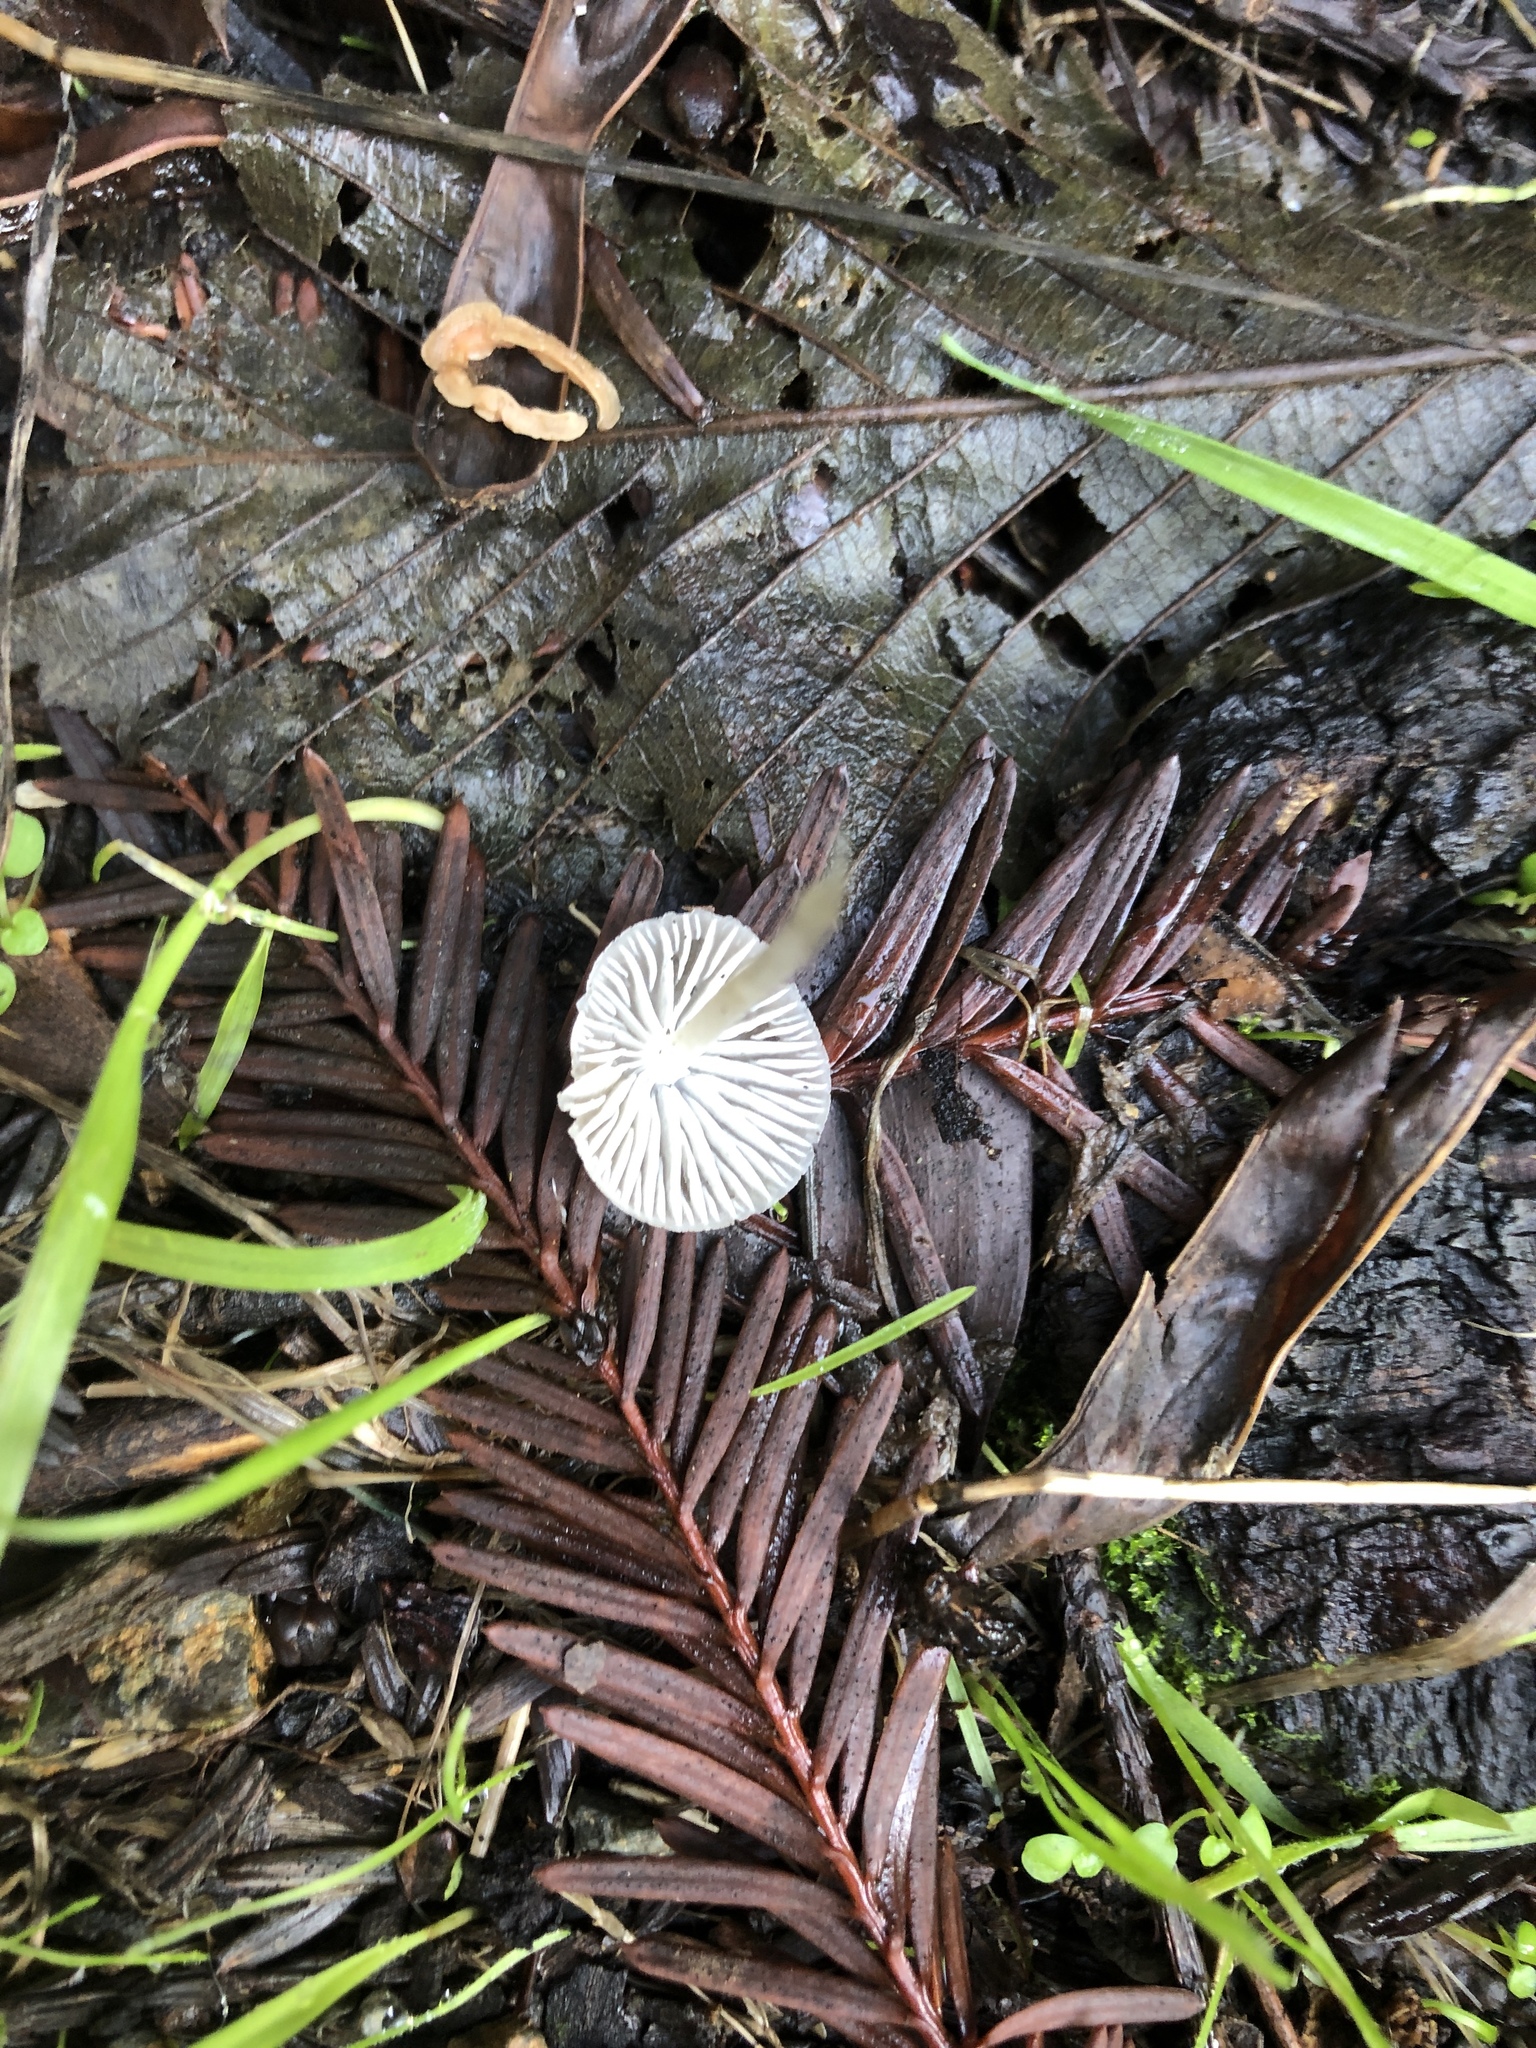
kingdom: Fungi
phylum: Basidiomycota
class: Agaricomycetes
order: Agaricales
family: Mycenaceae
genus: Mycena
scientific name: Mycena capillaripes
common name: Pinkedge bonnet
